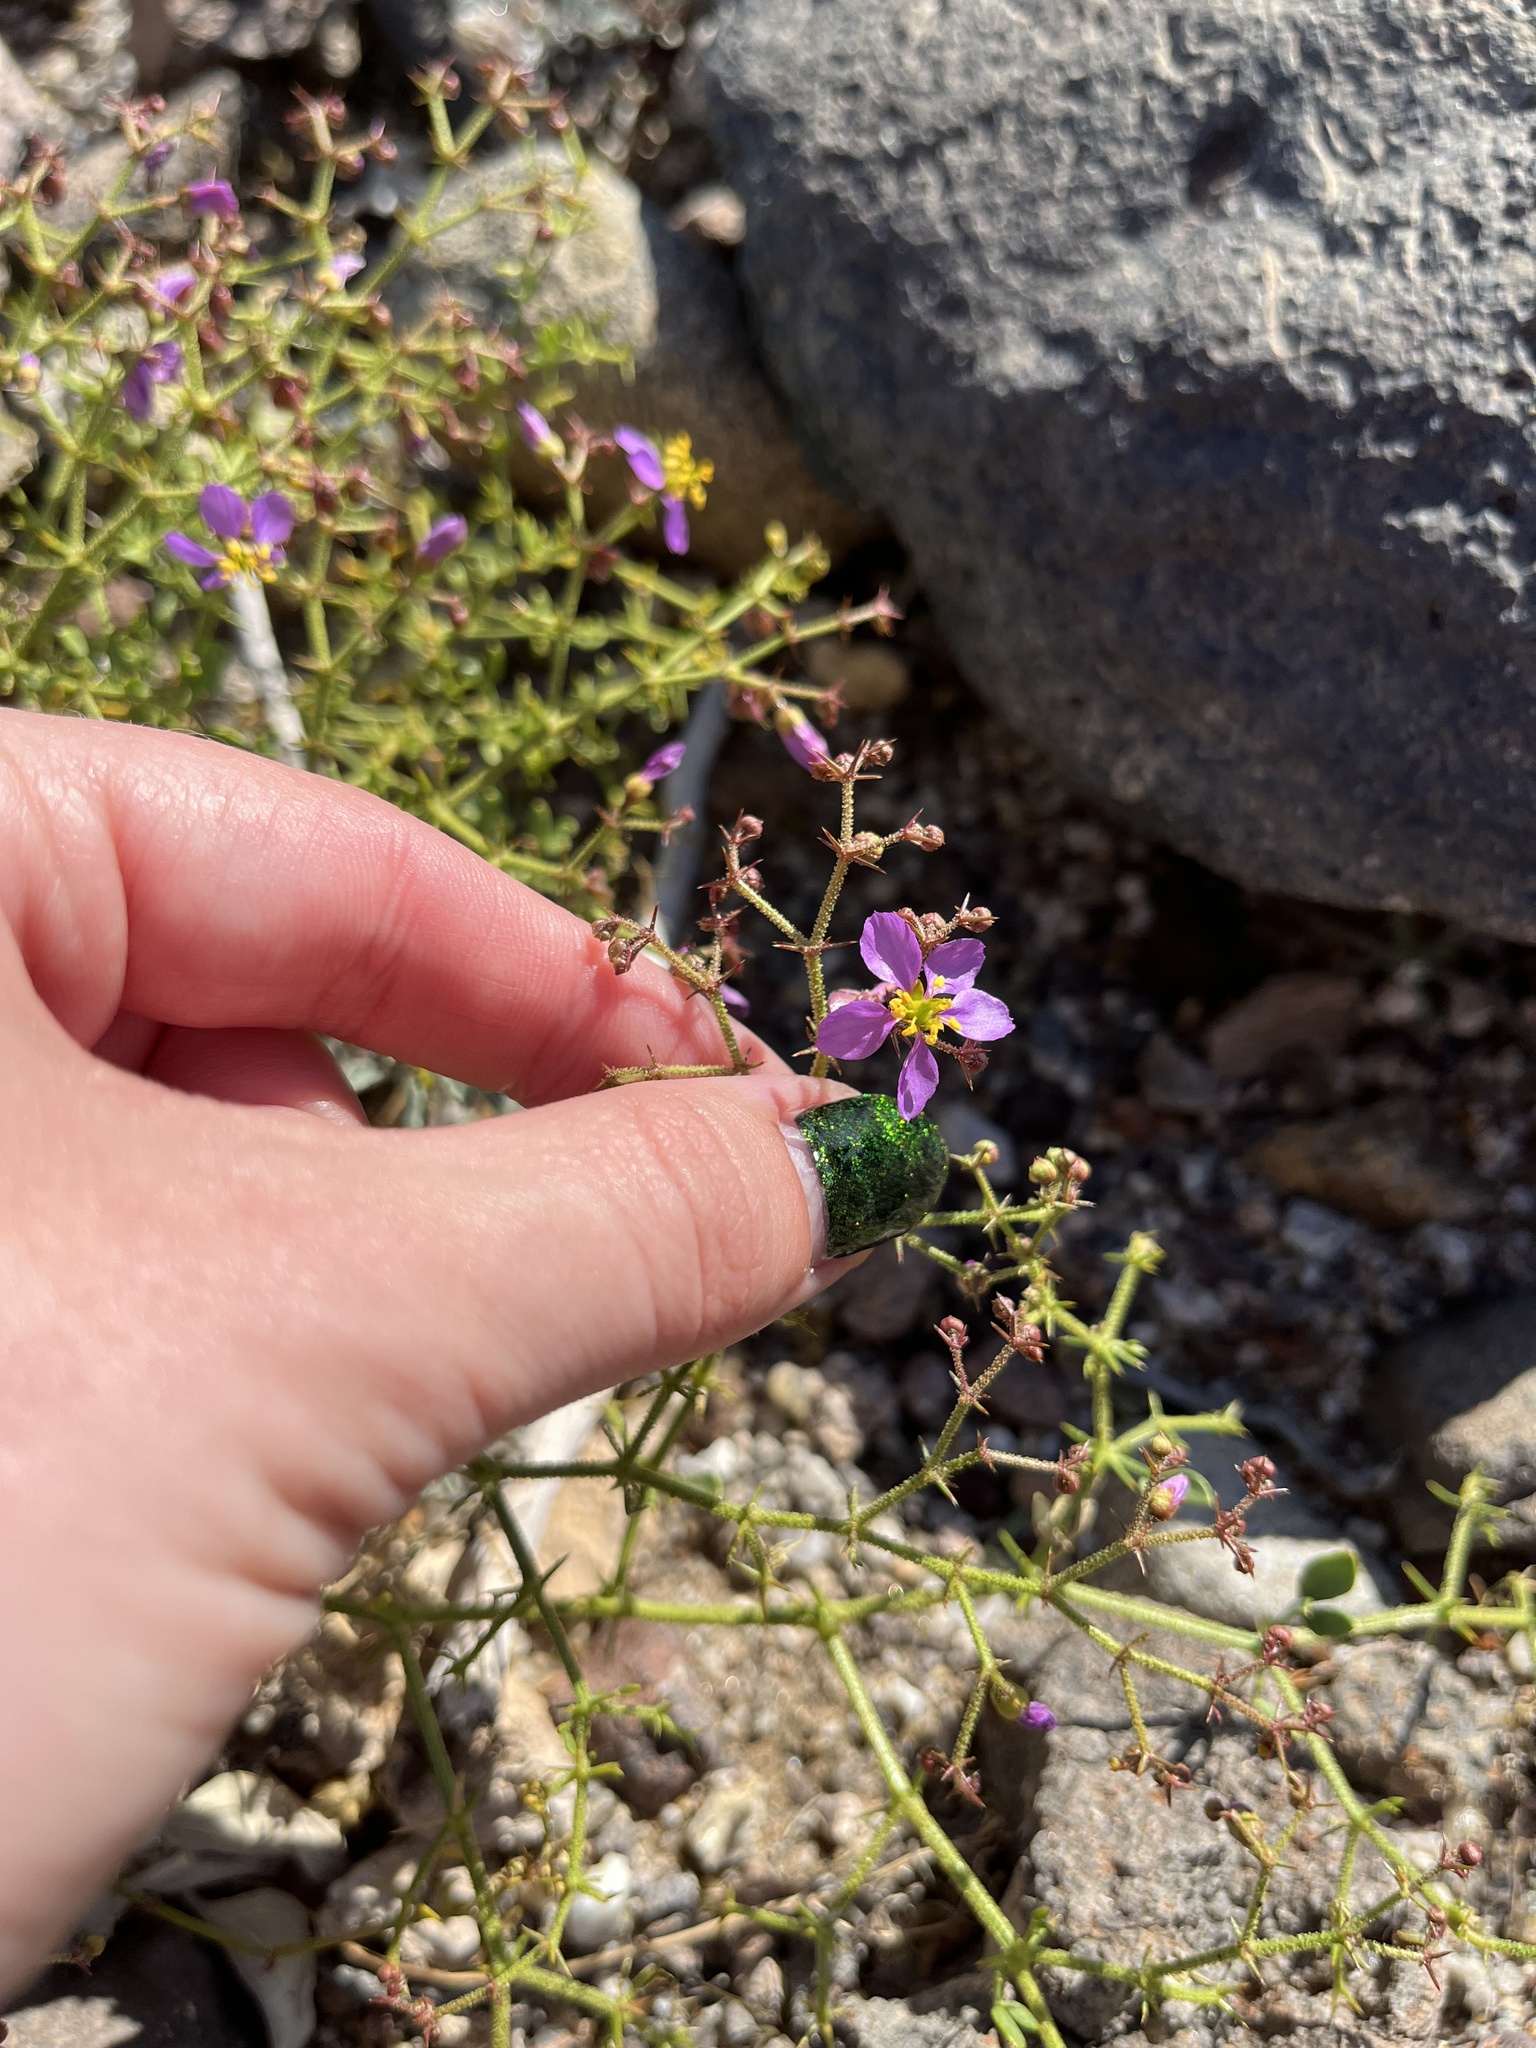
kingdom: Plantae
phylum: Tracheophyta
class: Magnoliopsida
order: Zygophyllales
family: Zygophyllaceae
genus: Fagonia
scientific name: Fagonia pachyacantha
